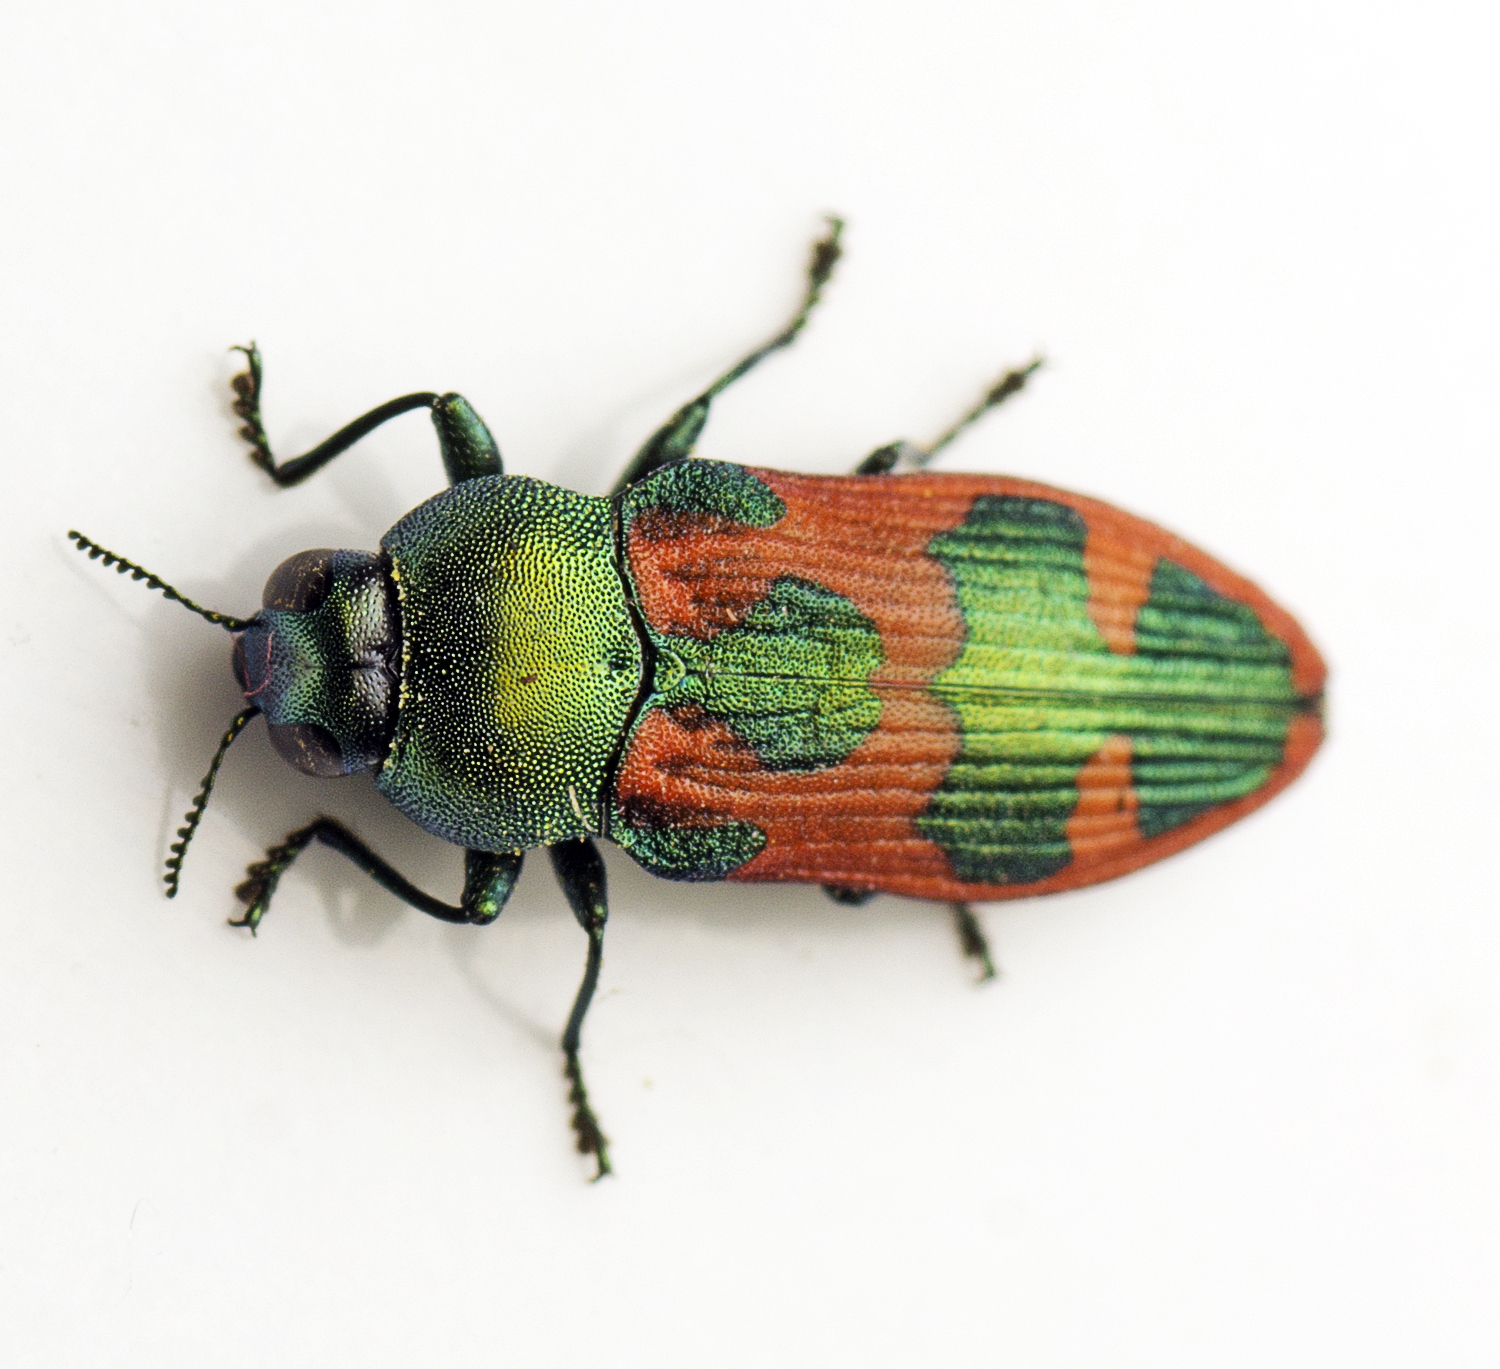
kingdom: Animalia
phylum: Arthropoda
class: Insecta
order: Coleoptera
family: Buprestidae
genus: Castiarina
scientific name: Castiarina hilaris
